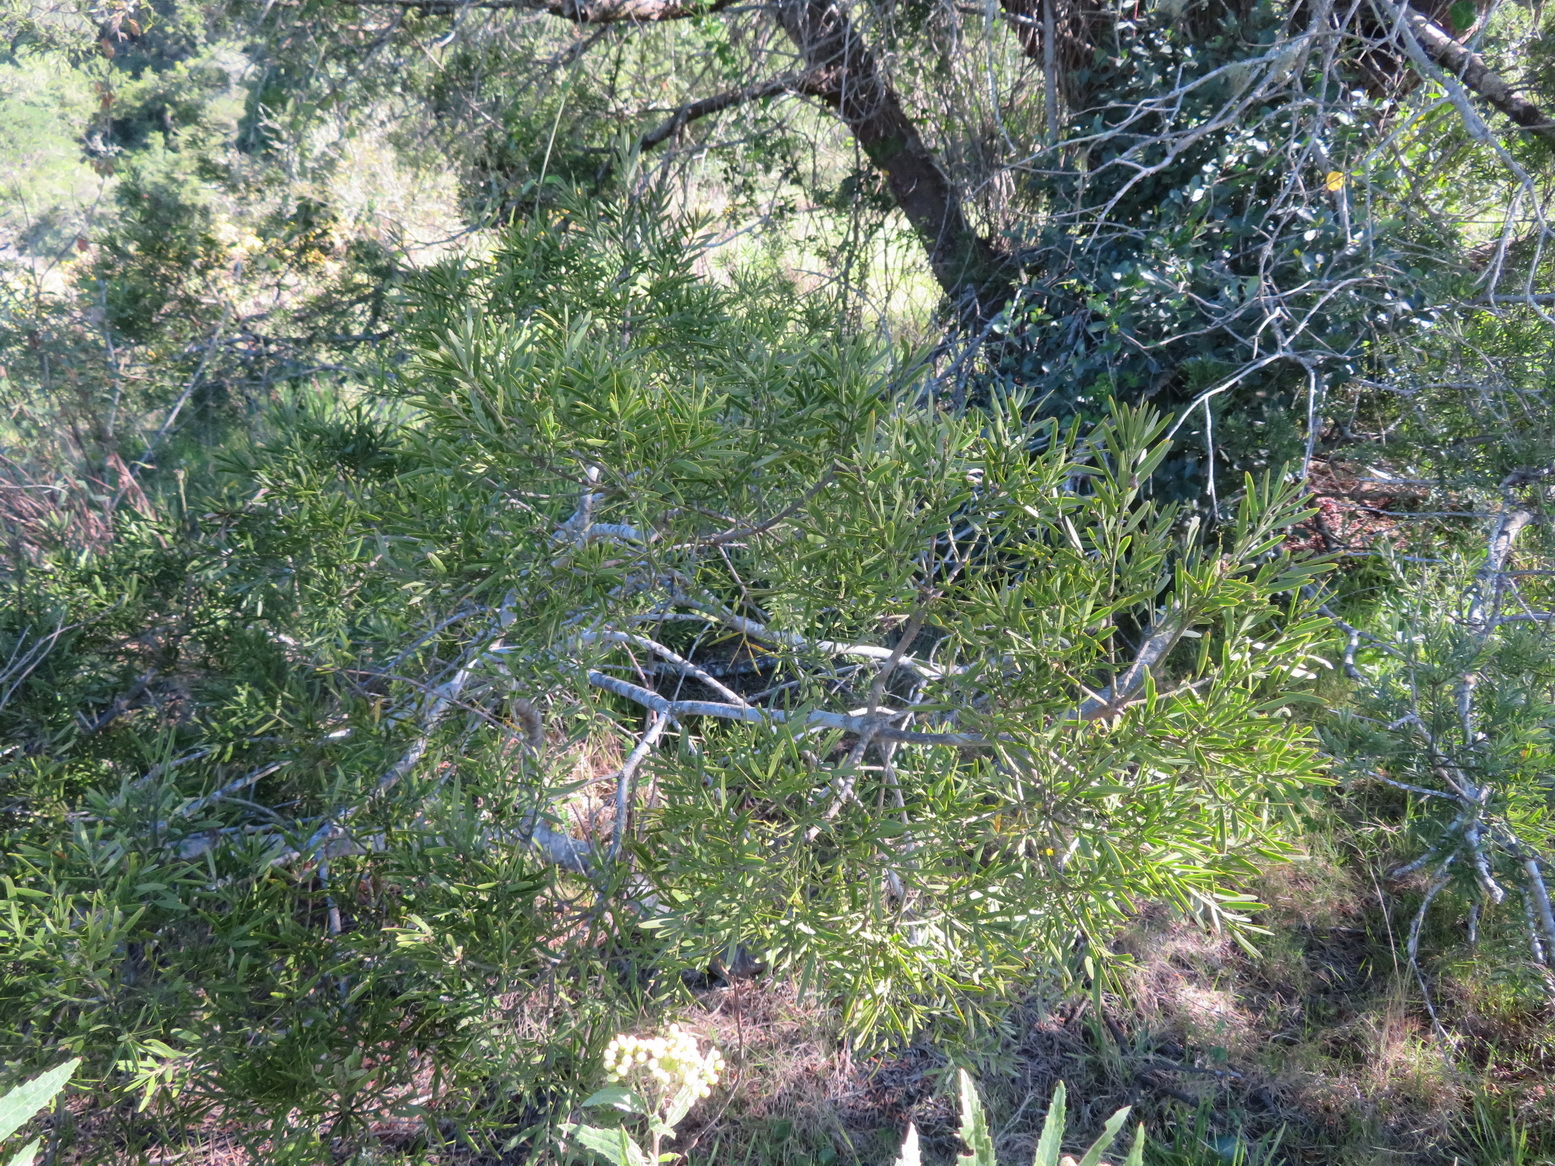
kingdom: Plantae
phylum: Tracheophyta
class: Pinopsida
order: Pinales
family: Podocarpaceae
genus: Afrocarpus
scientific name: Afrocarpus falcatus
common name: Bastard yellowwood
